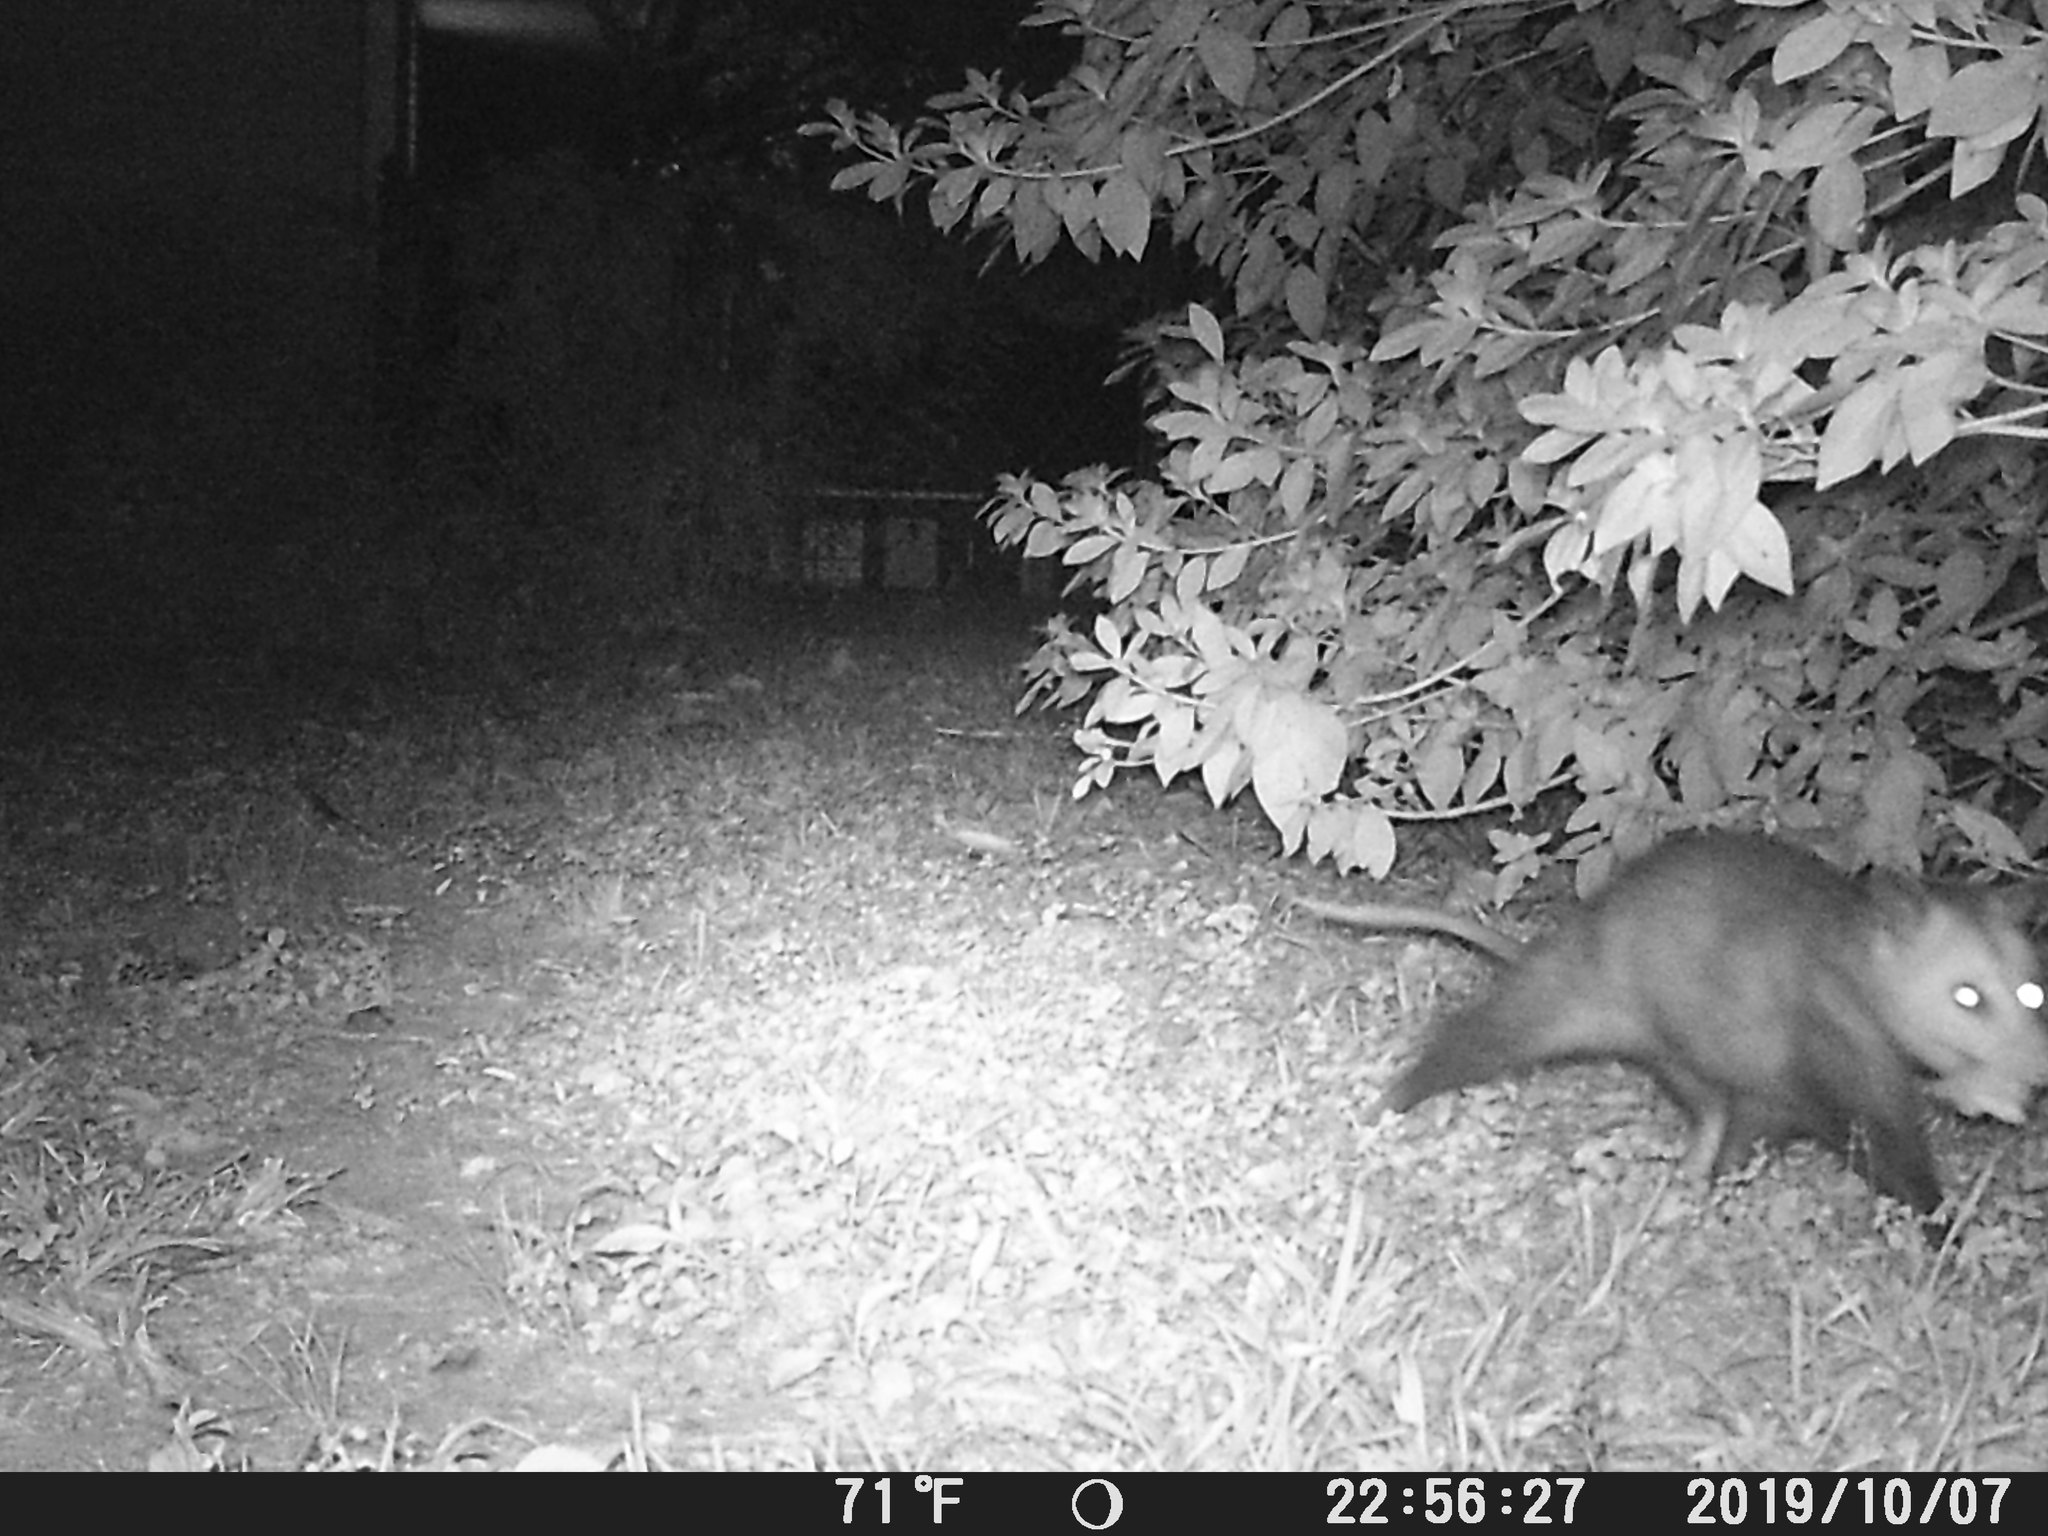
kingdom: Animalia
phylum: Chordata
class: Mammalia
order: Didelphimorphia
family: Didelphidae
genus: Didelphis
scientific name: Didelphis virginiana
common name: Virginia opossum
